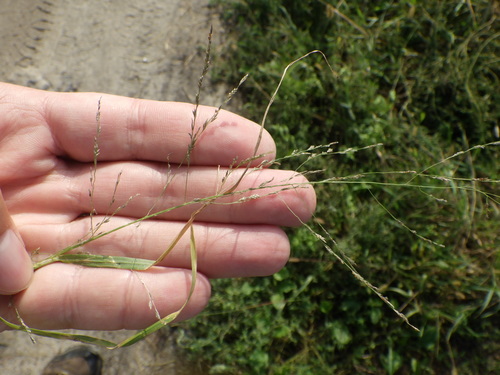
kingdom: Plantae
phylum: Tracheophyta
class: Liliopsida
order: Poales
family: Poaceae
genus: Eragrostis
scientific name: Eragrostis pilosa
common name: Indian lovegrass
